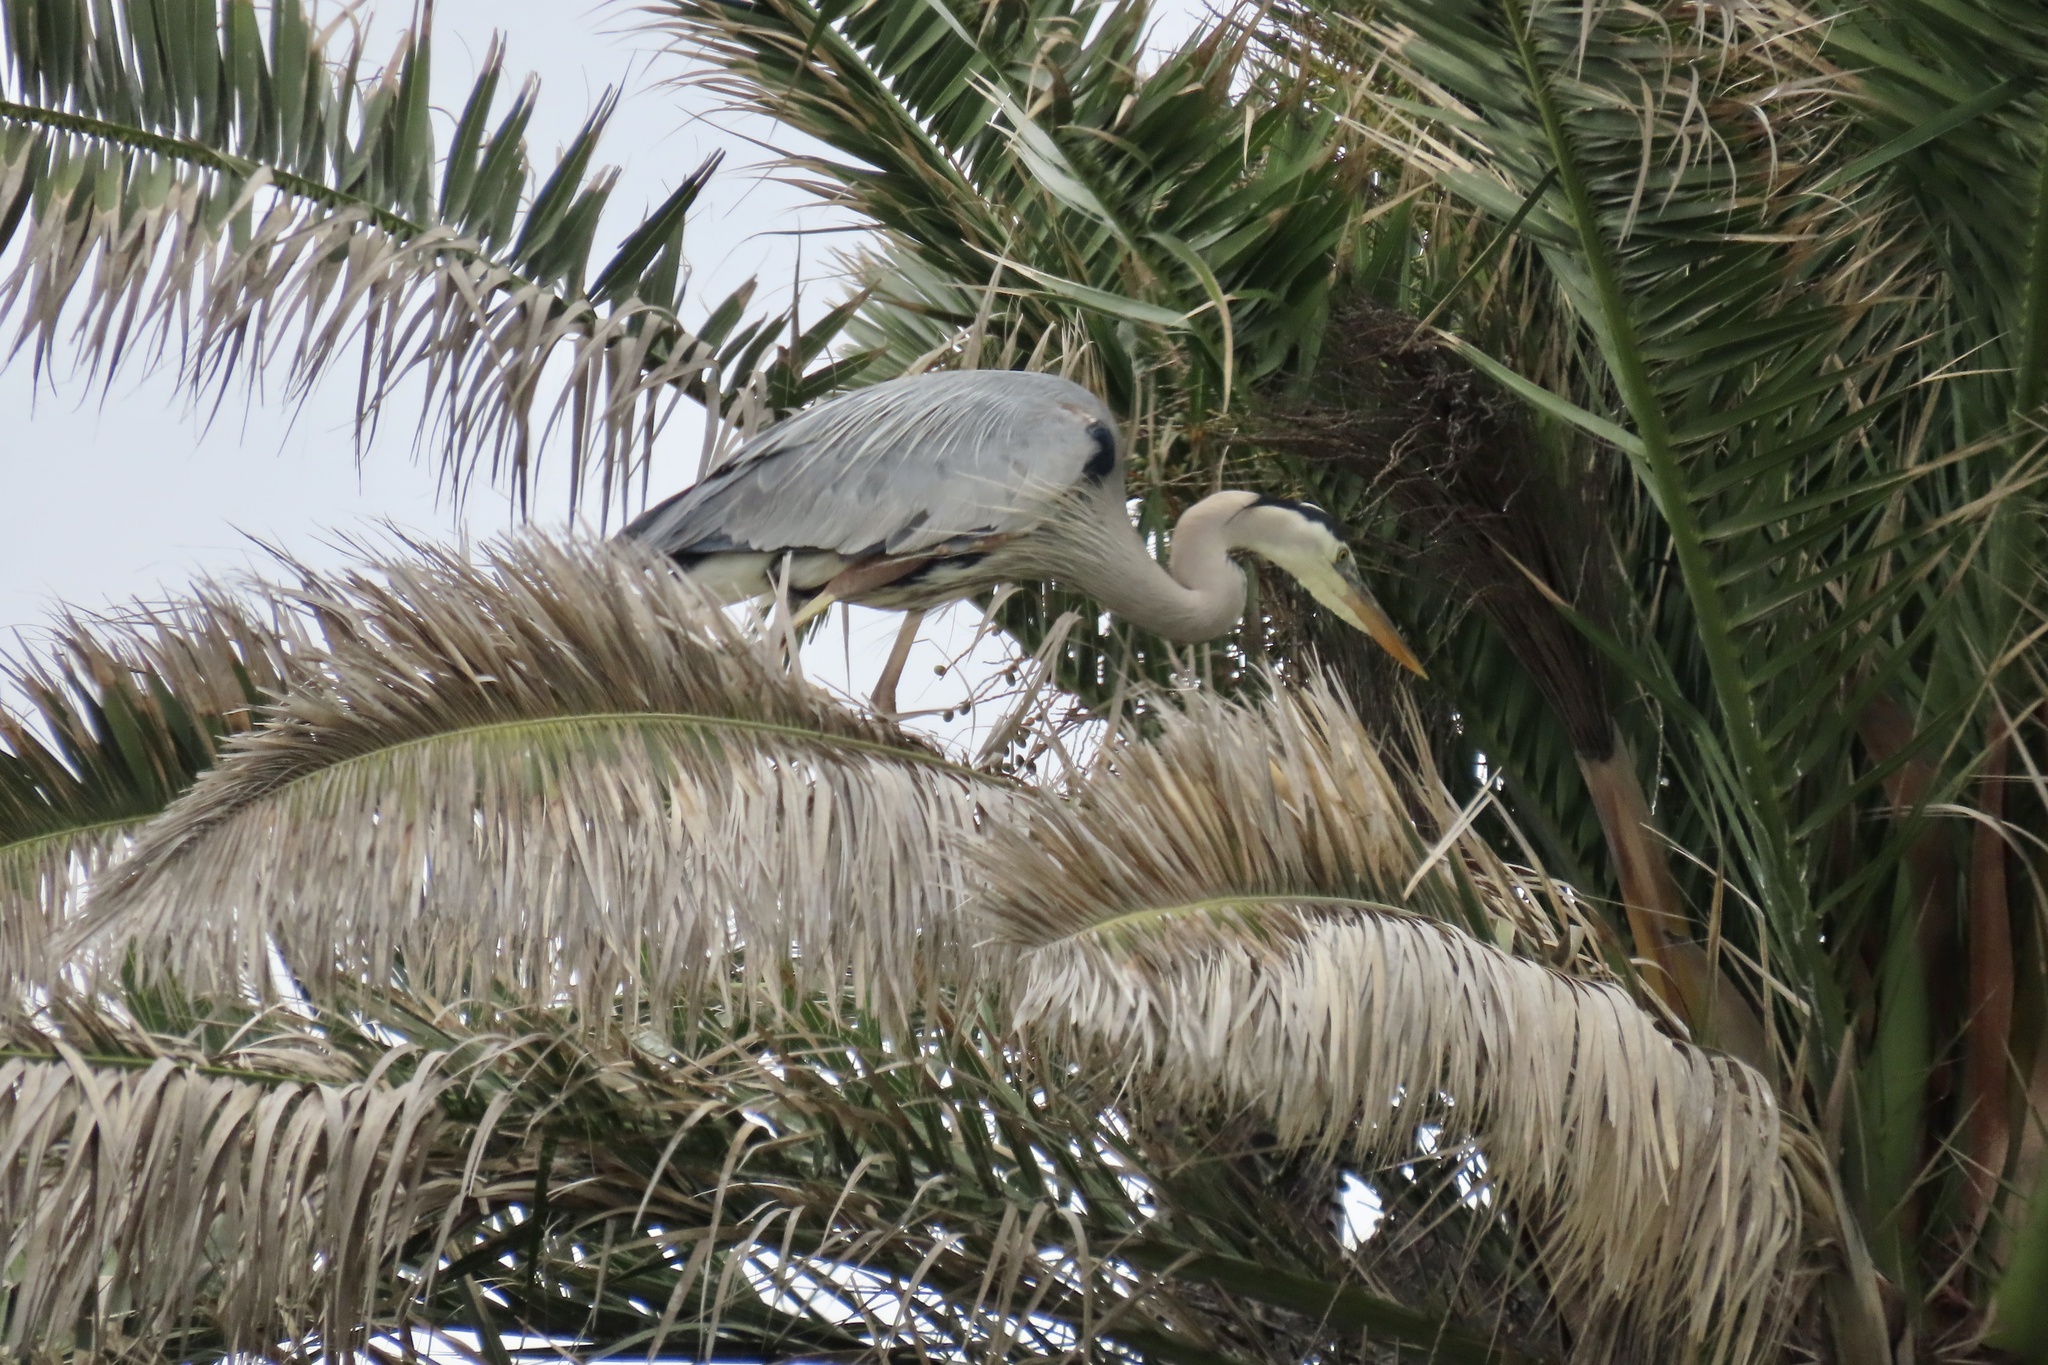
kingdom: Animalia
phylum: Chordata
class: Aves
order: Pelecaniformes
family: Ardeidae
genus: Ardea
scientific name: Ardea herodias
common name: Great blue heron
